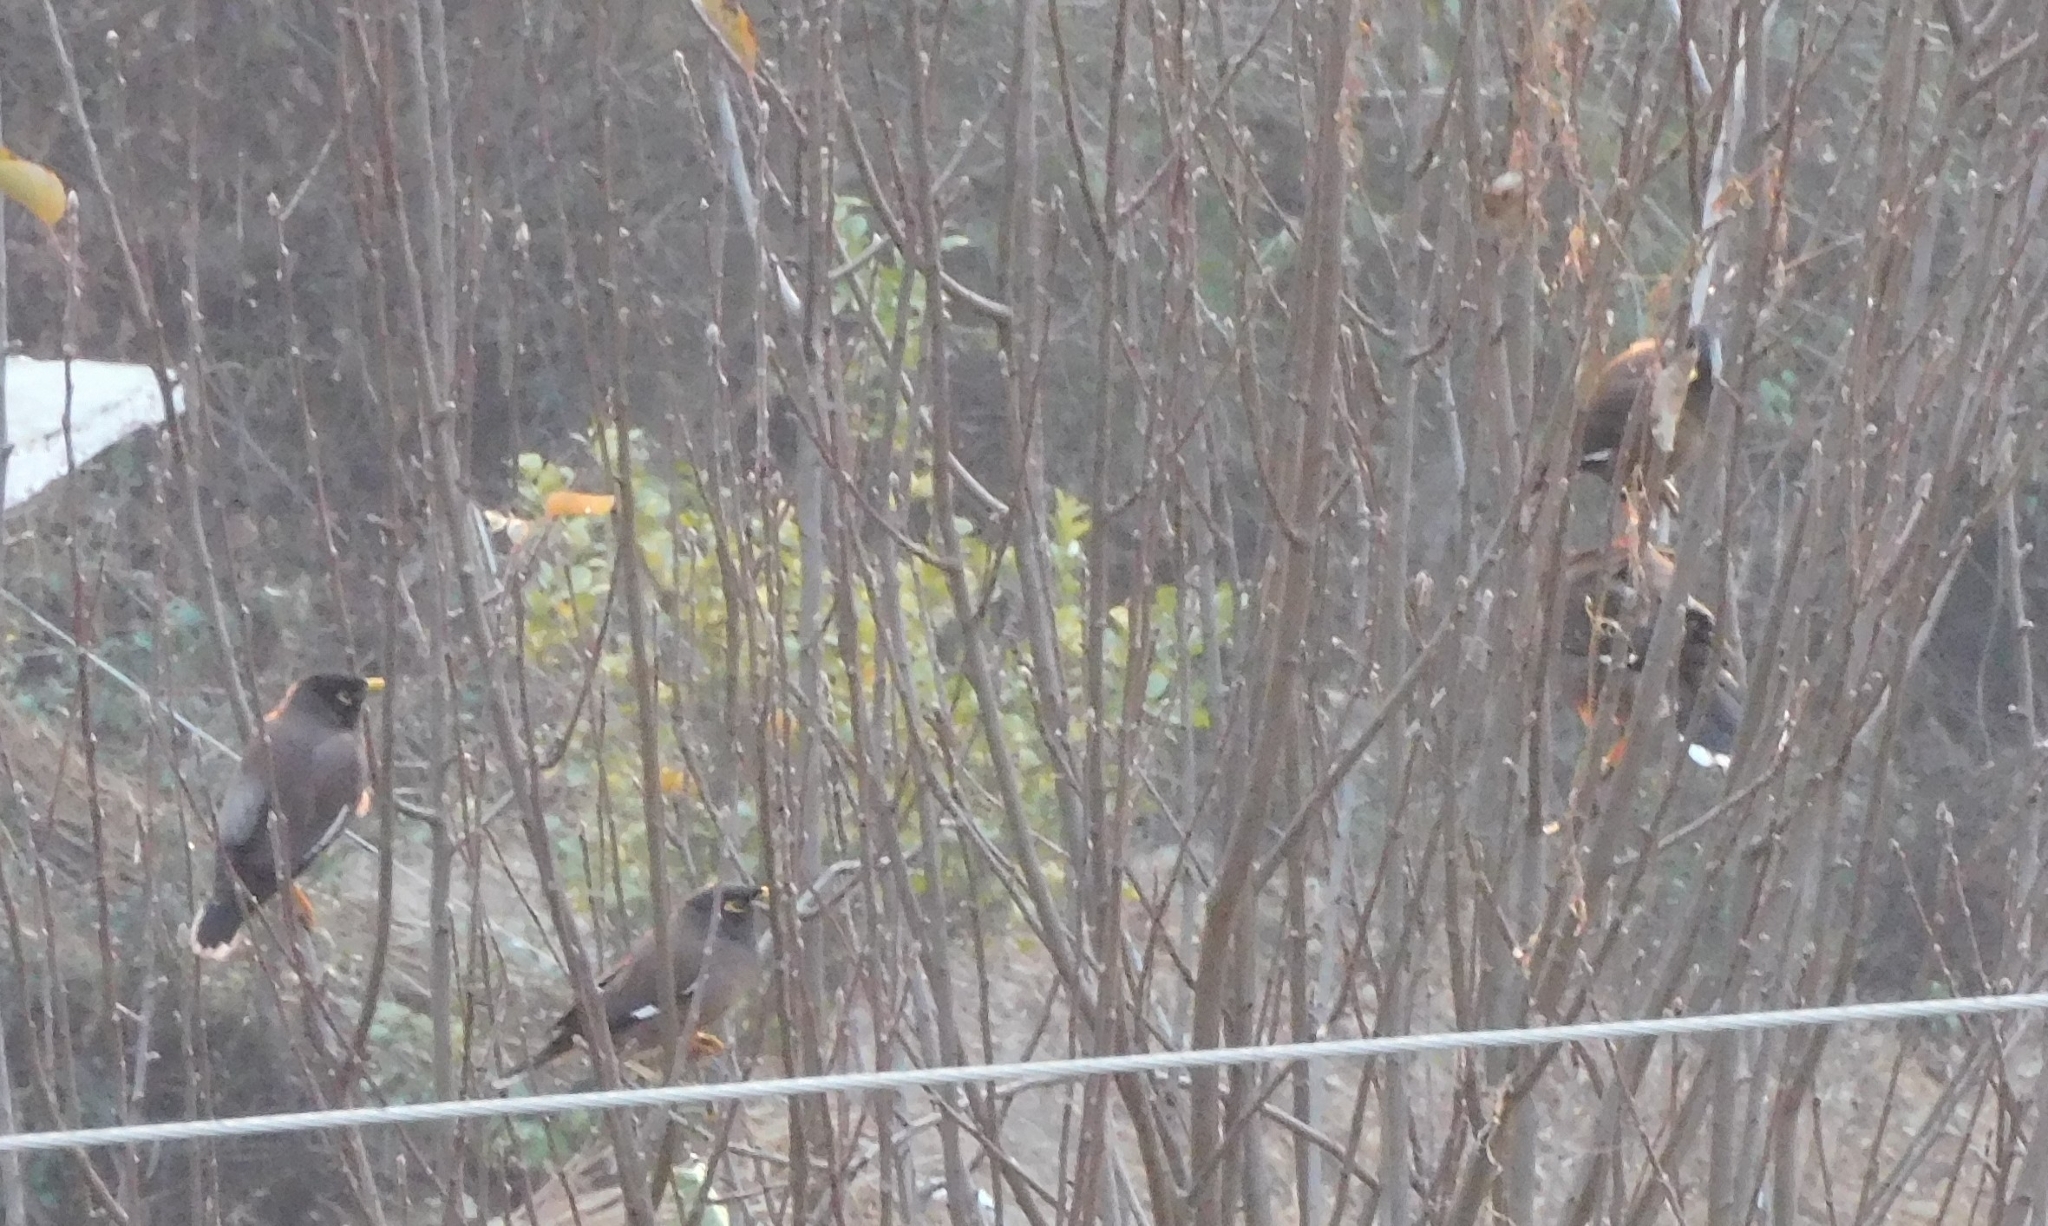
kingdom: Animalia
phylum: Chordata
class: Aves
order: Passeriformes
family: Sturnidae
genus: Acridotheres
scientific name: Acridotheres tristis
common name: Common myna
